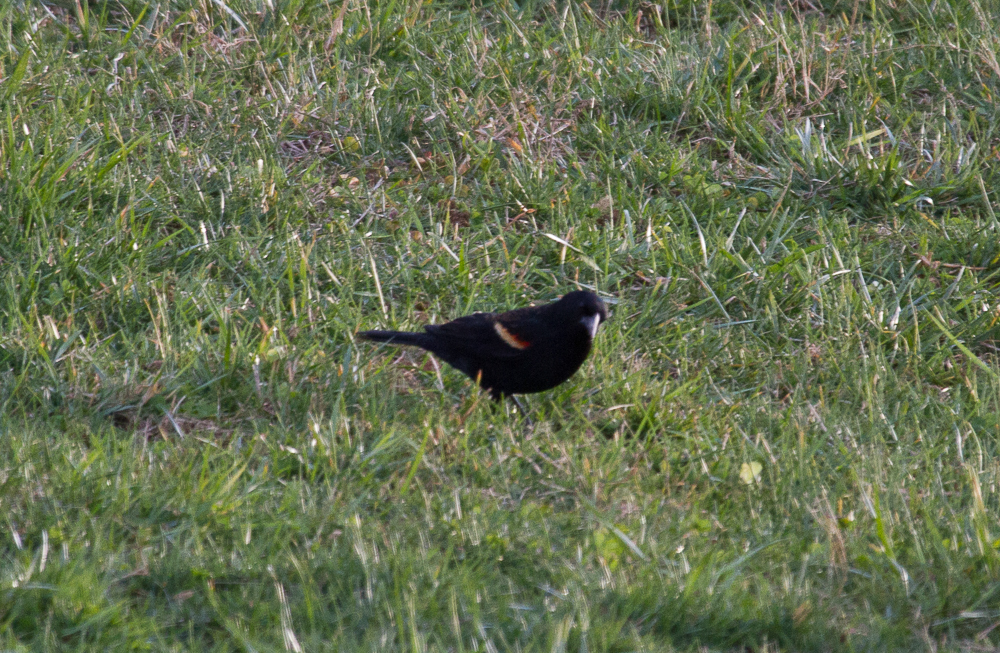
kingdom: Animalia
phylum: Chordata
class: Aves
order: Passeriformes
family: Icteridae
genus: Agelaius
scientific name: Agelaius phoeniceus
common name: Red-winged blackbird
